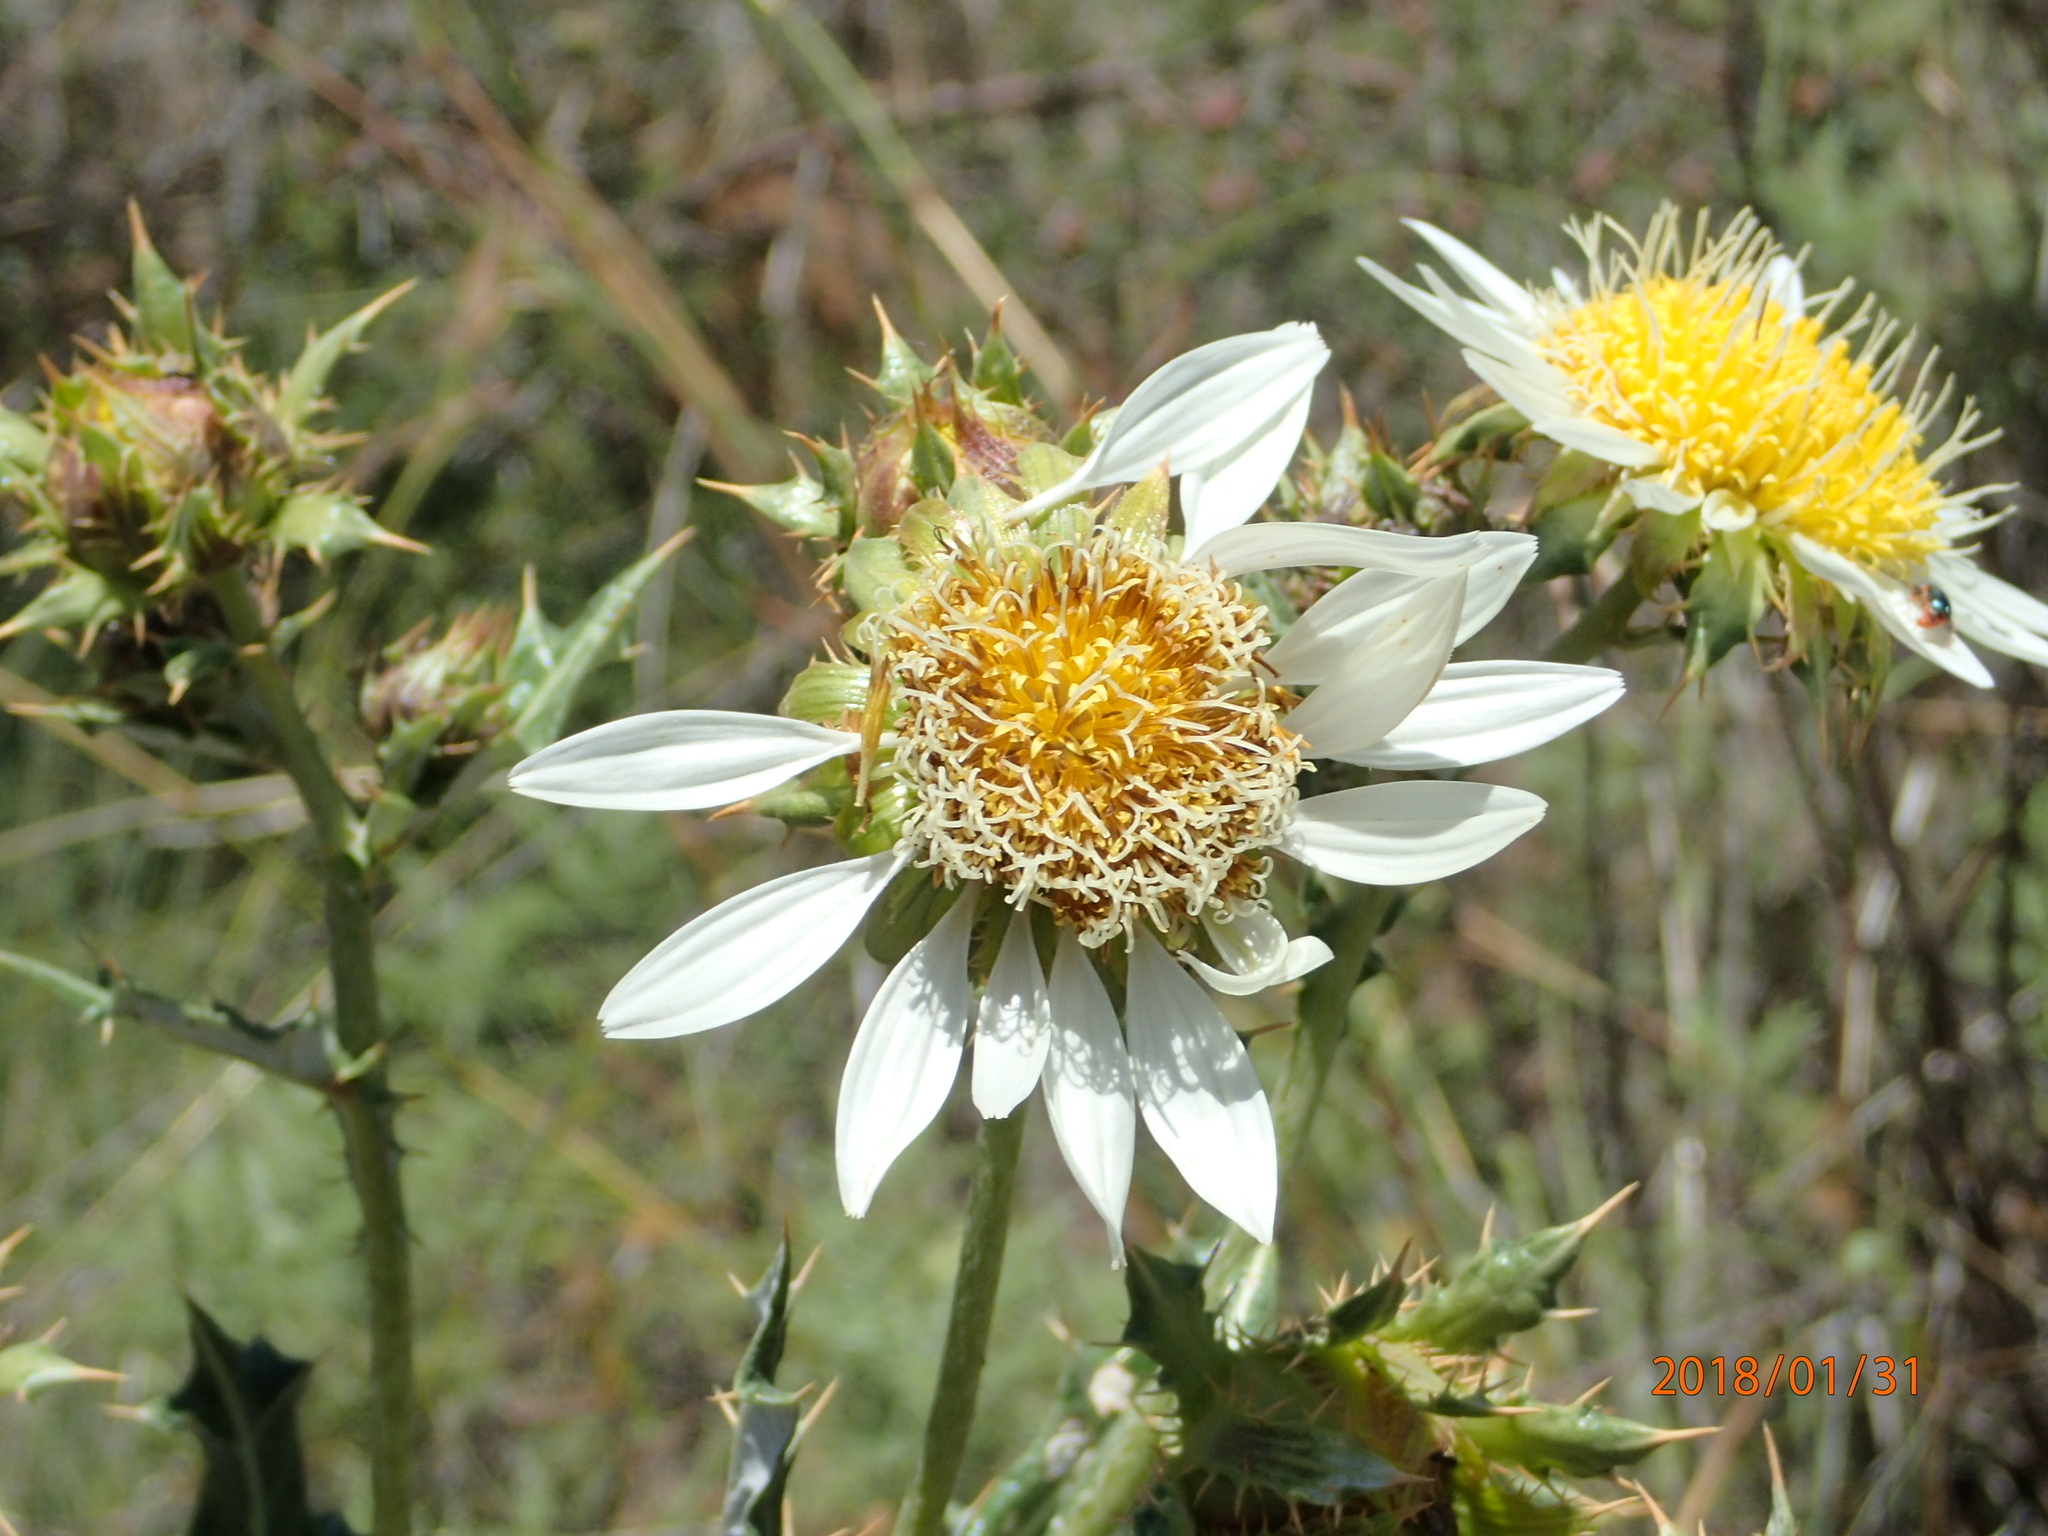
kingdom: Plantae
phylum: Tracheophyta
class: Magnoliopsida
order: Asterales
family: Asteraceae
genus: Berkheya
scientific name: Berkheya cirsiifolia
